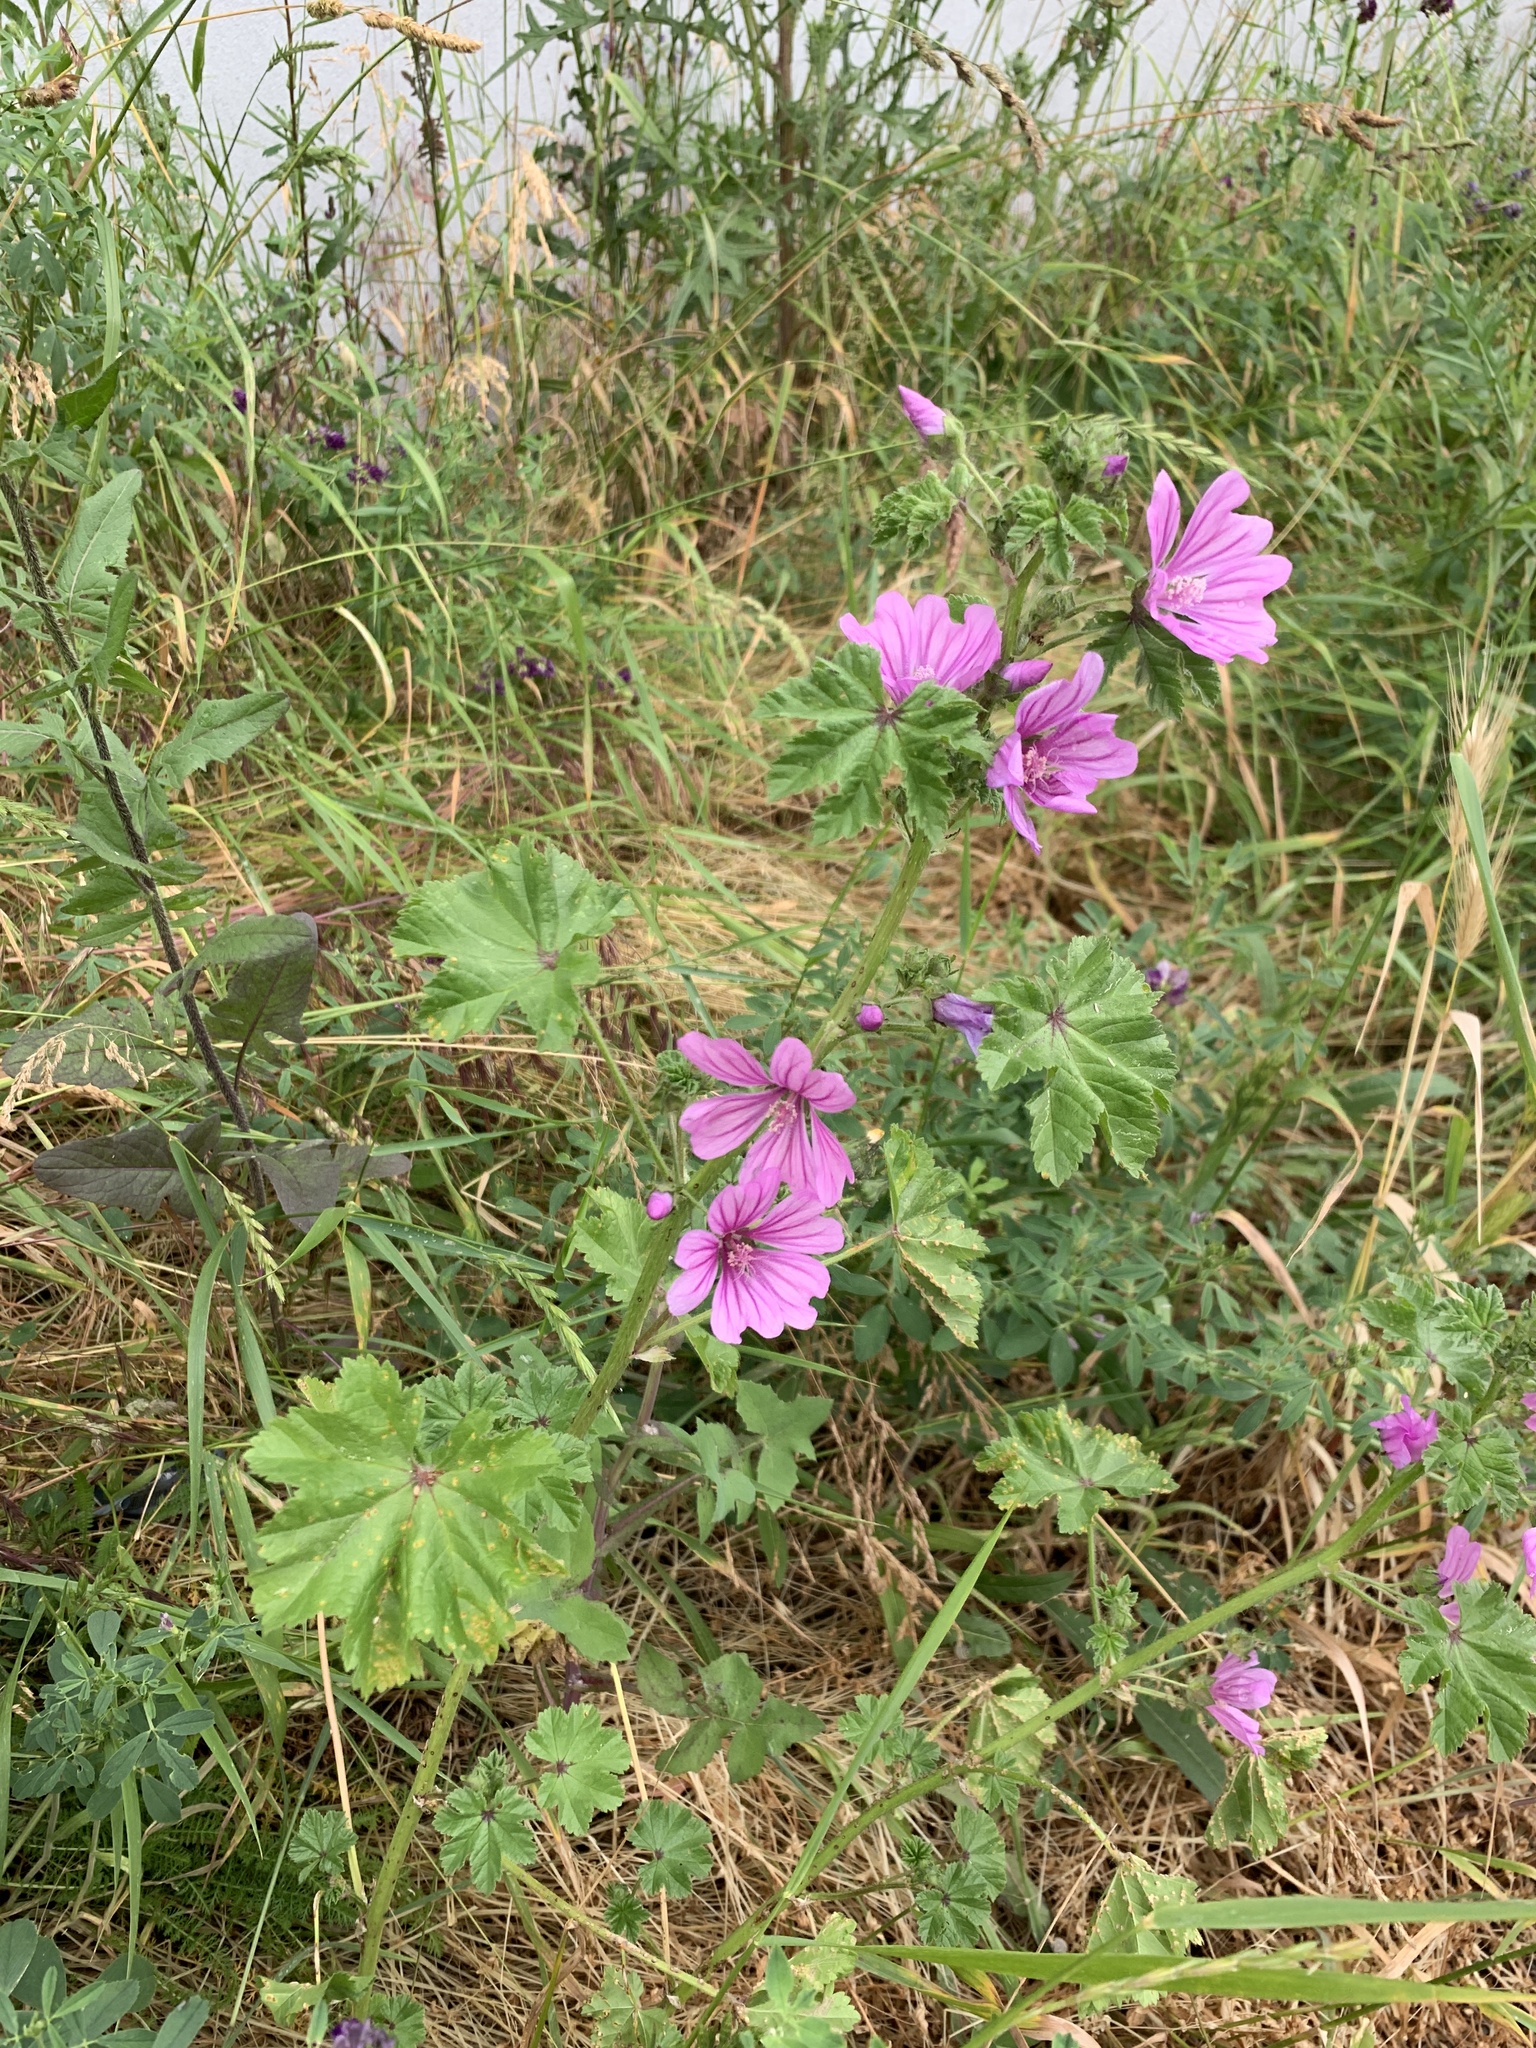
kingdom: Plantae
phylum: Tracheophyta
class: Magnoliopsida
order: Malvales
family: Malvaceae
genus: Malva
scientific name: Malva sylvestris
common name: Common mallow
